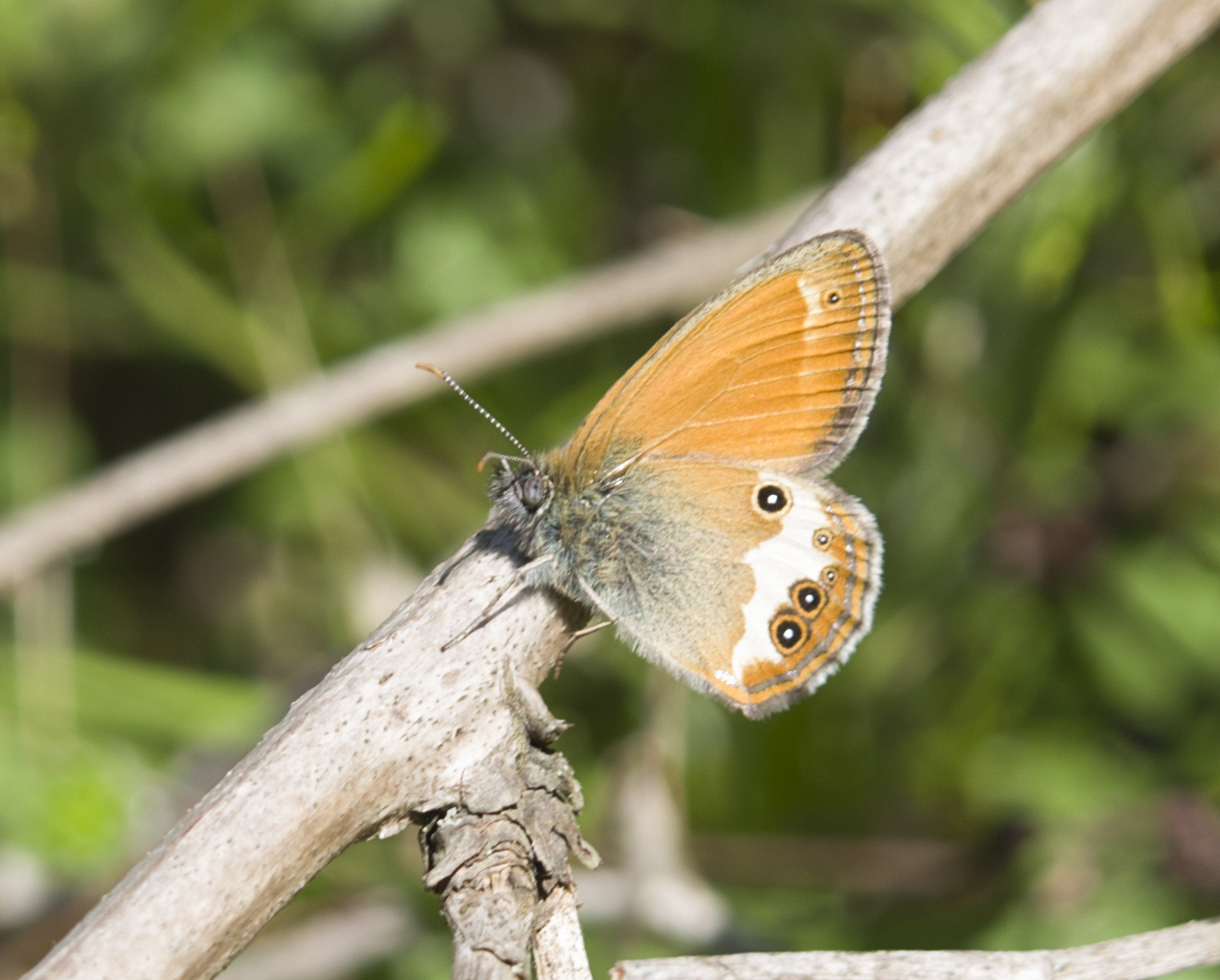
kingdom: Animalia
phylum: Arthropoda
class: Insecta
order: Lepidoptera
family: Nymphalidae
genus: Coenonympha
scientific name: Coenonympha arcania
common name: Pearly heath
